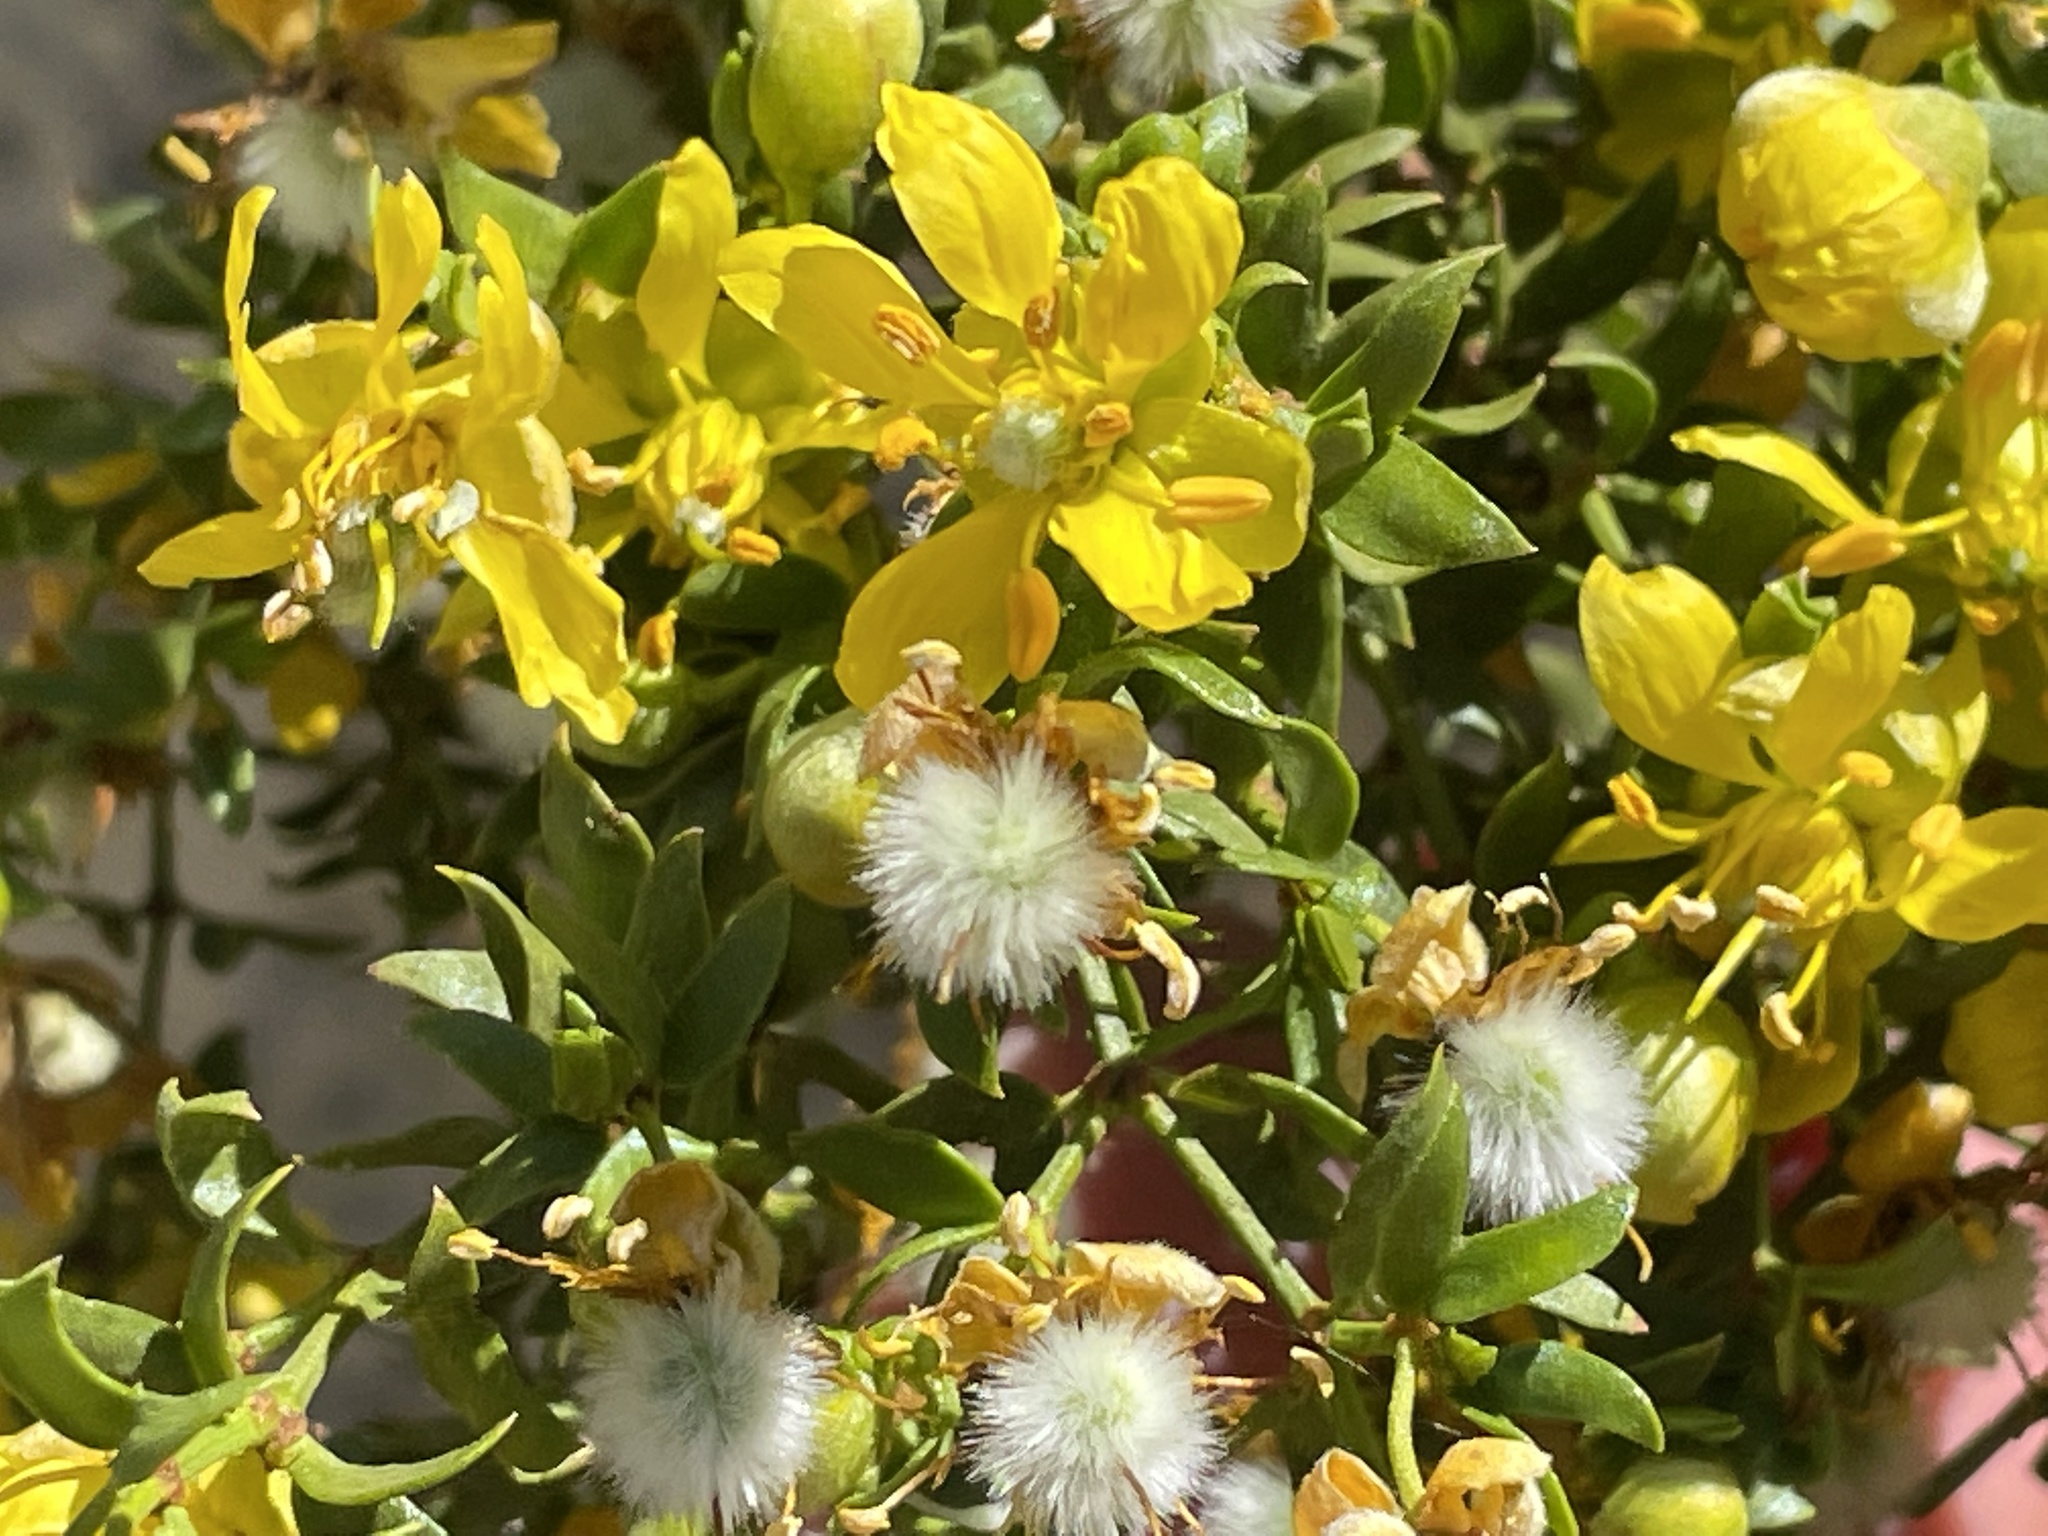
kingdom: Plantae
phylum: Tracheophyta
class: Magnoliopsida
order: Zygophyllales
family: Zygophyllaceae
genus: Larrea
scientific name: Larrea tridentata
